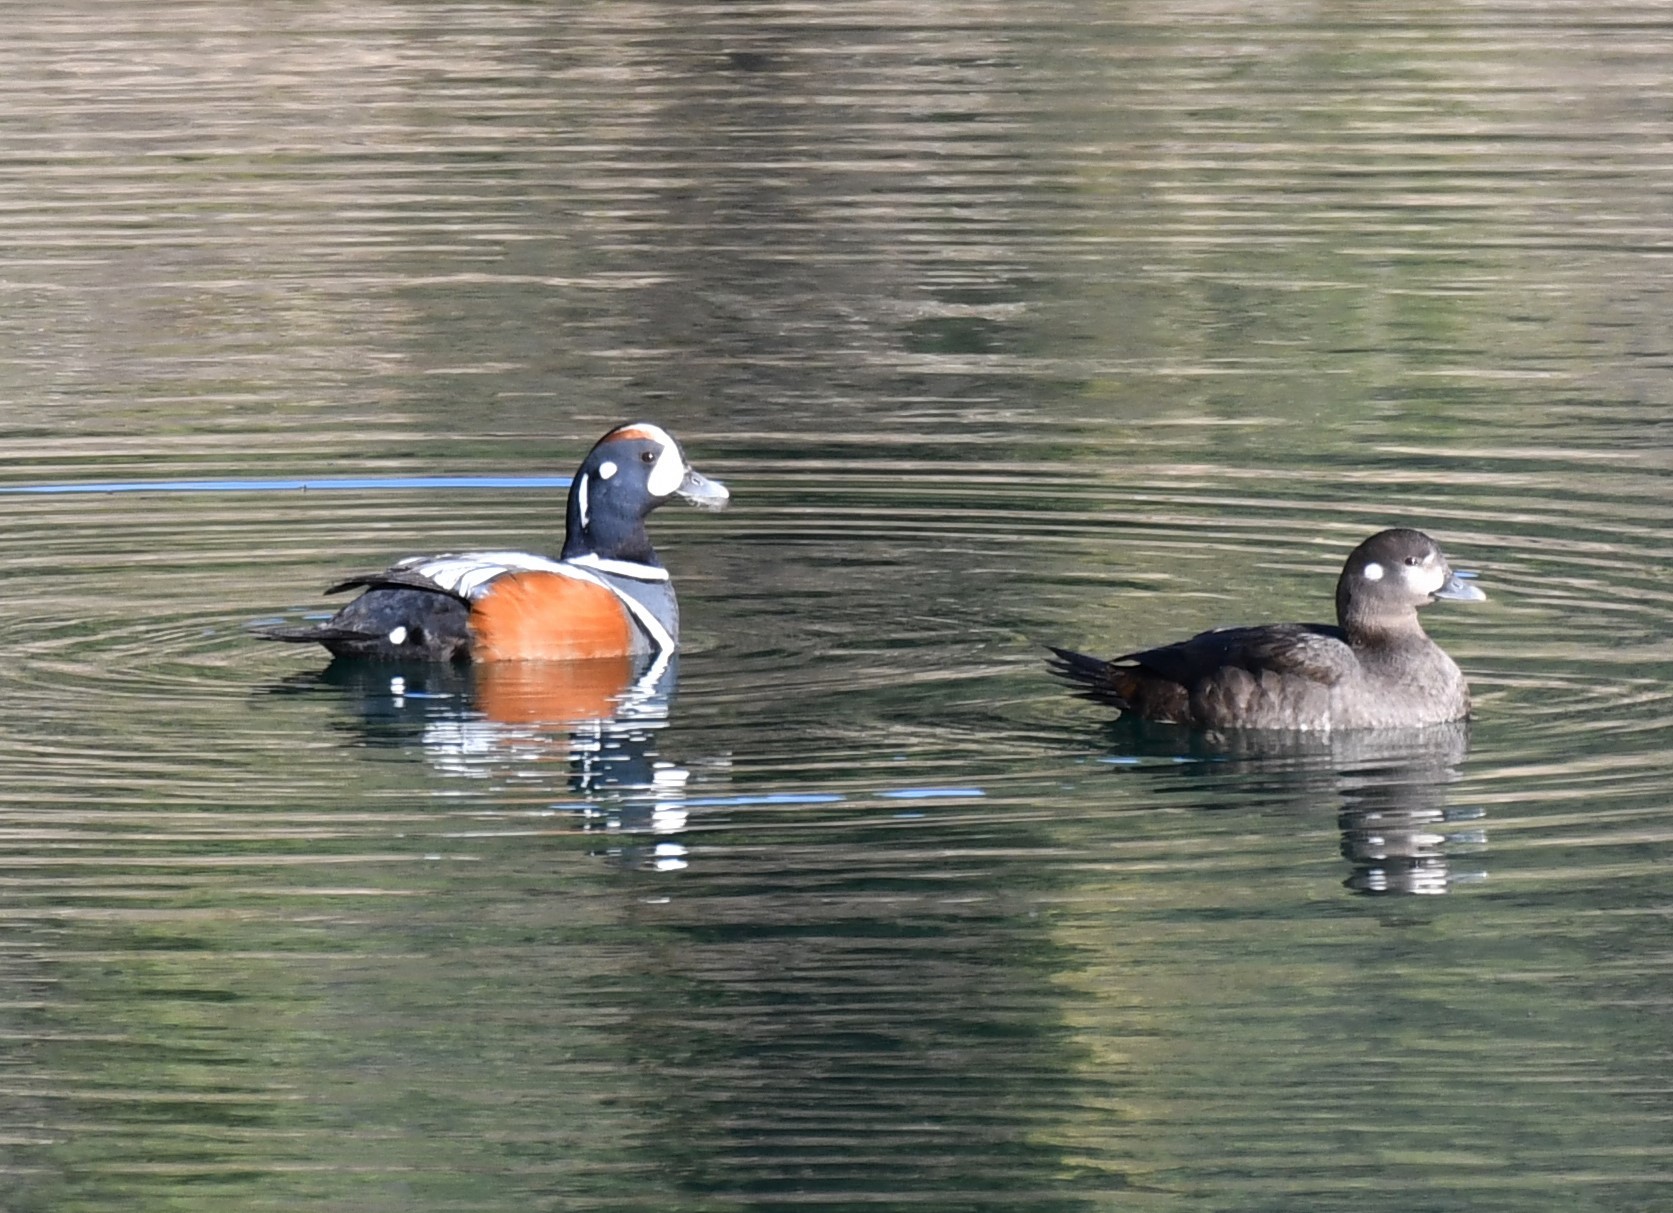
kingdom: Animalia
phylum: Chordata
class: Aves
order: Anseriformes
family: Anatidae
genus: Histrionicus
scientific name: Histrionicus histrionicus
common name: Harlequin duck
